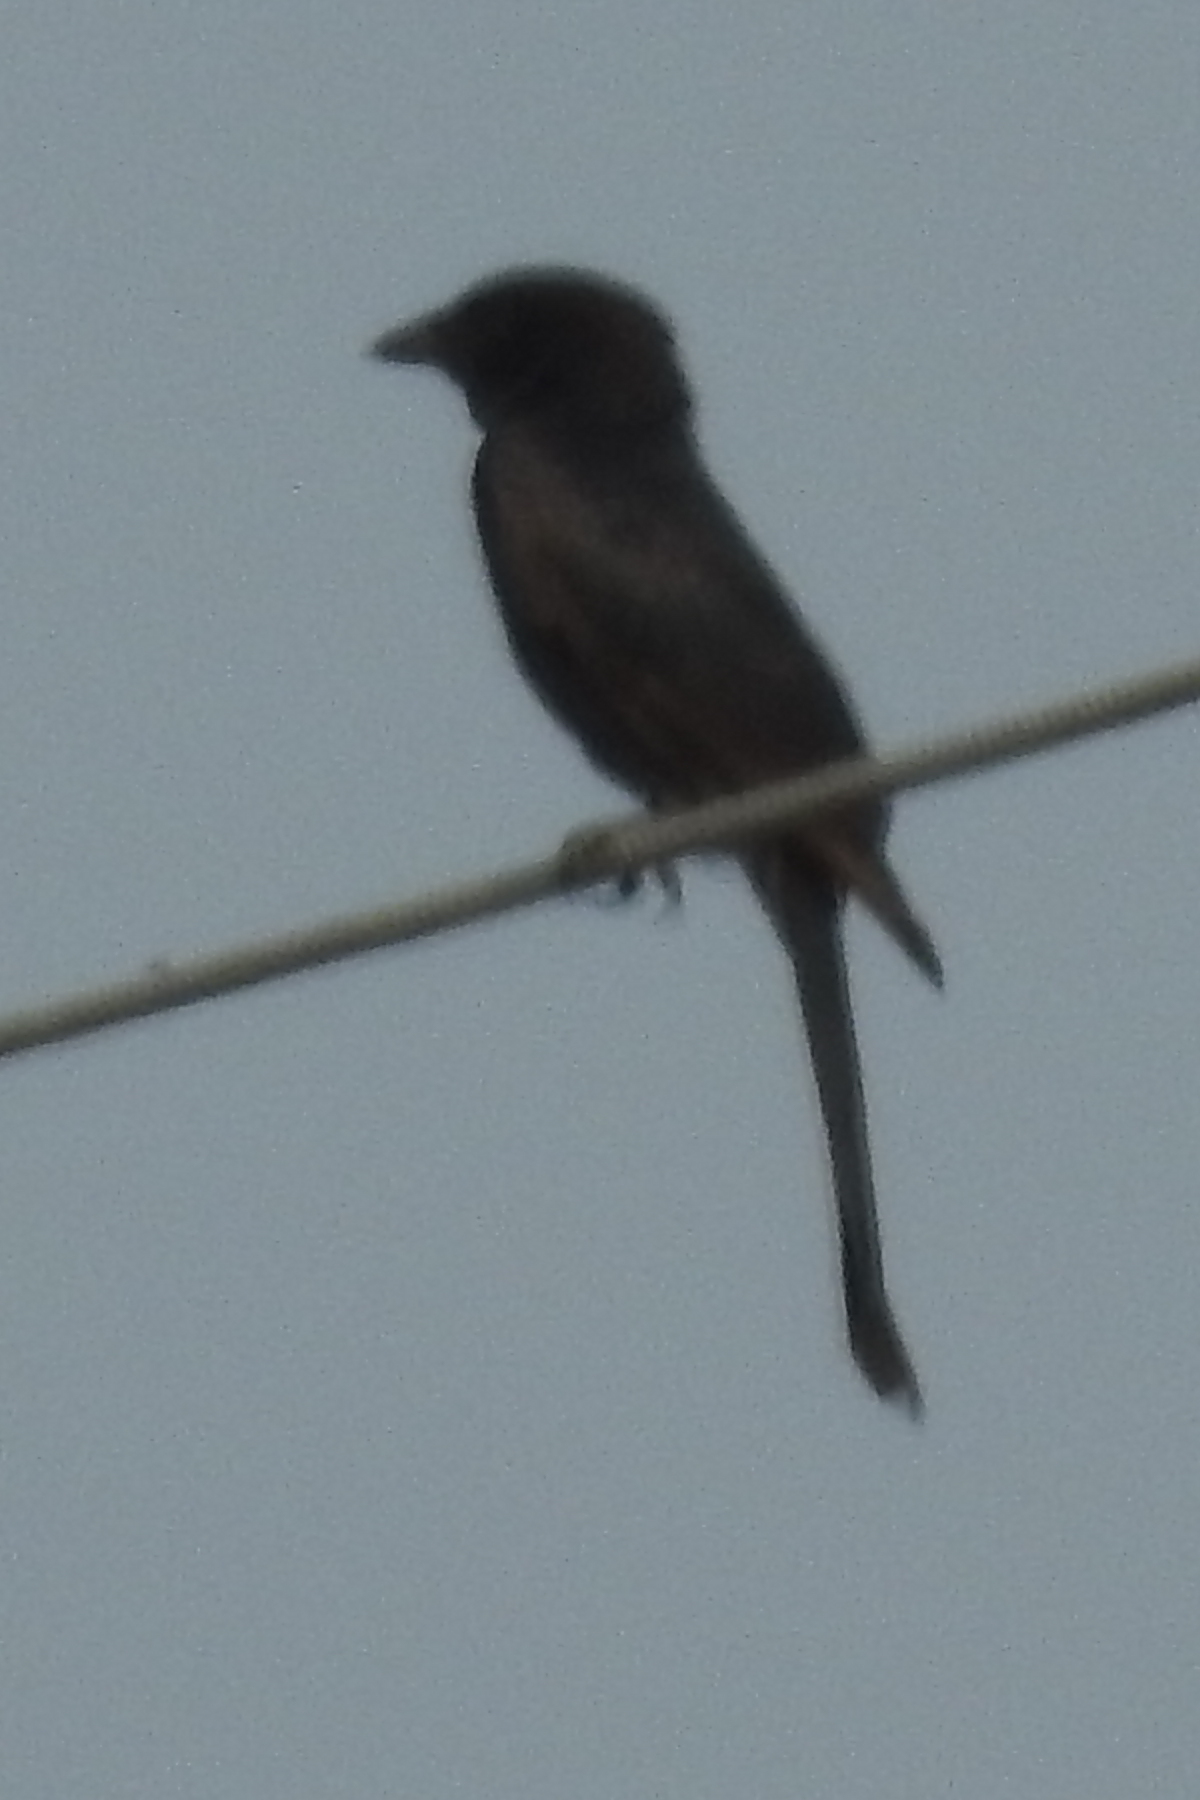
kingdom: Animalia
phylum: Chordata
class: Aves
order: Passeriformes
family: Dicruridae
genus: Dicrurus
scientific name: Dicrurus macrocercus
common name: Black drongo
